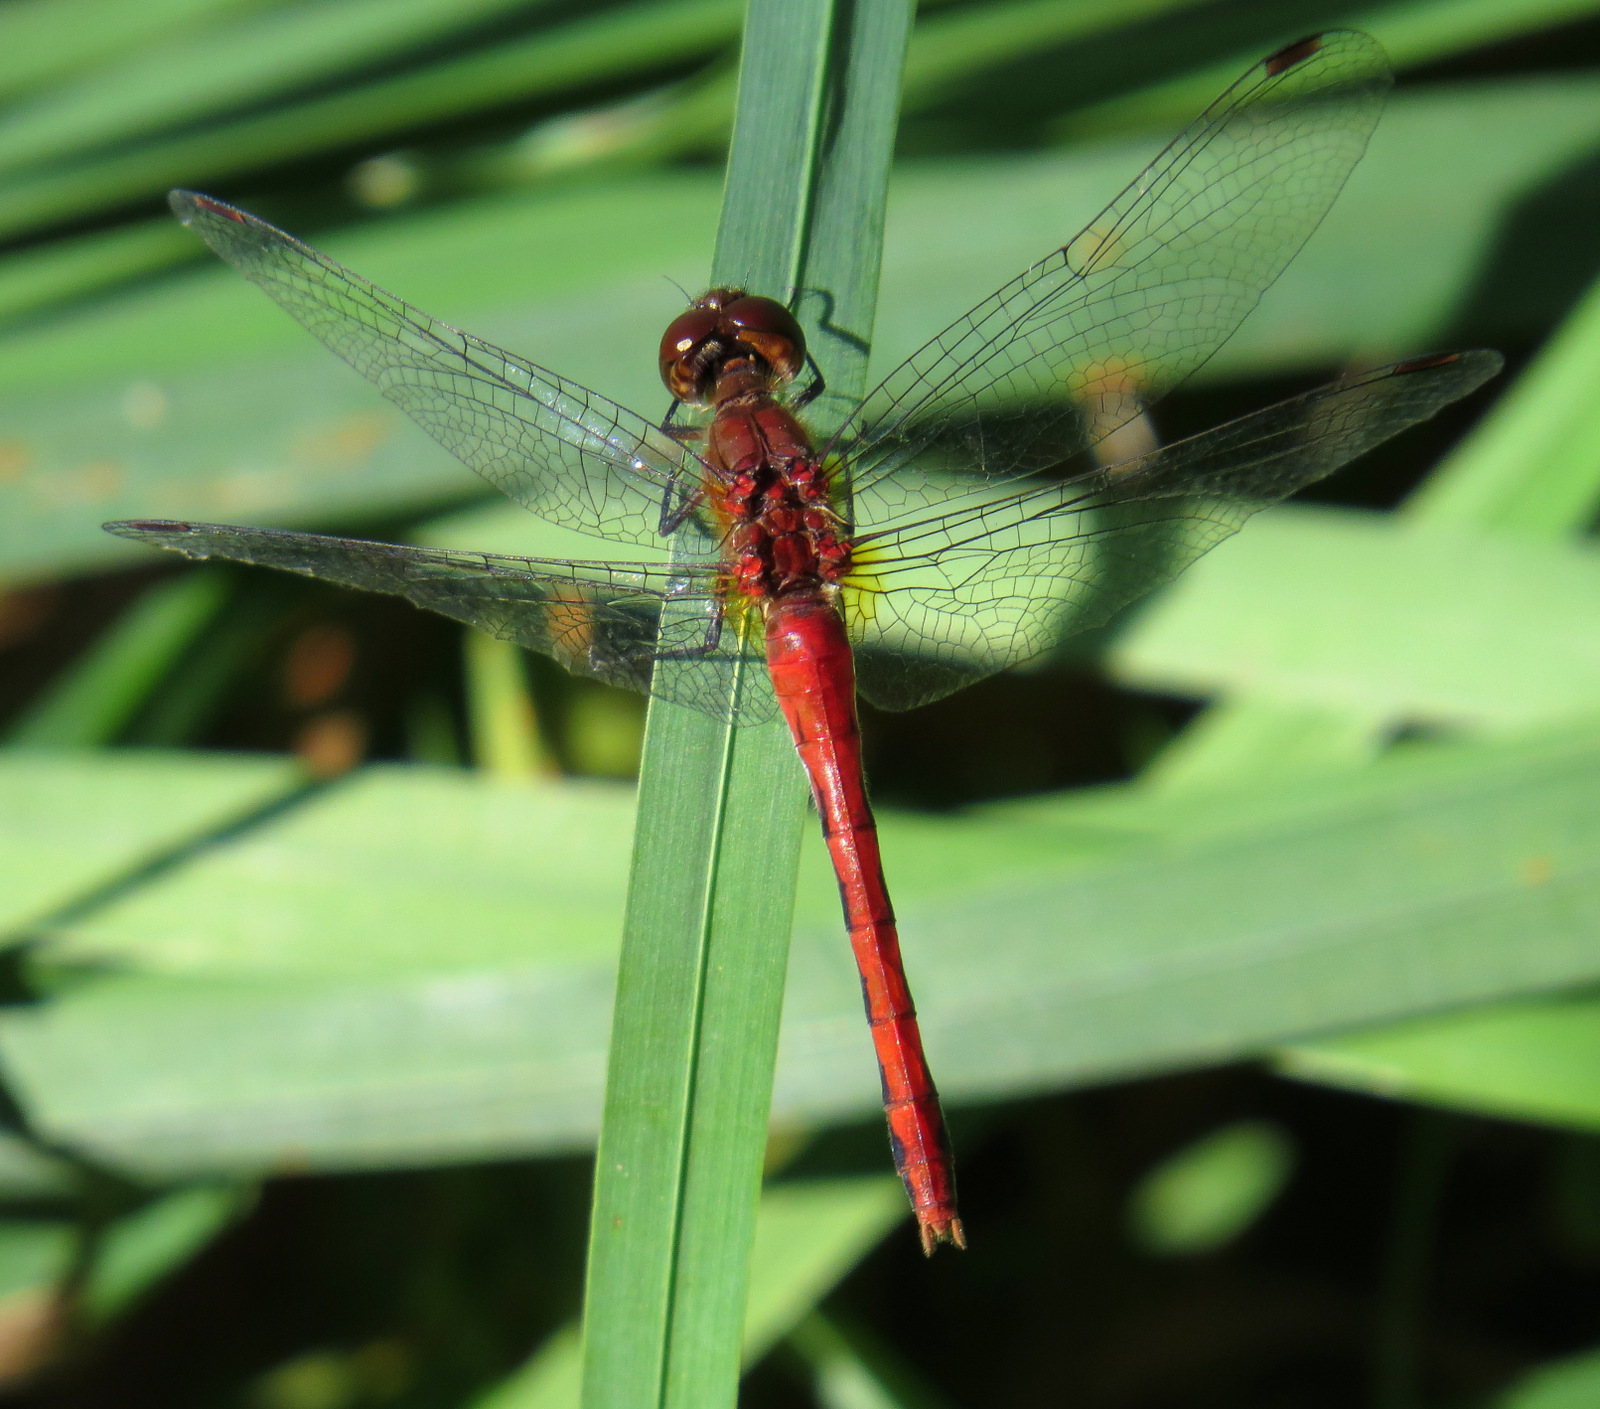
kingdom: Animalia
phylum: Arthropoda
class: Insecta
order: Odonata
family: Libellulidae
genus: Sympetrum
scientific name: Sympetrum
